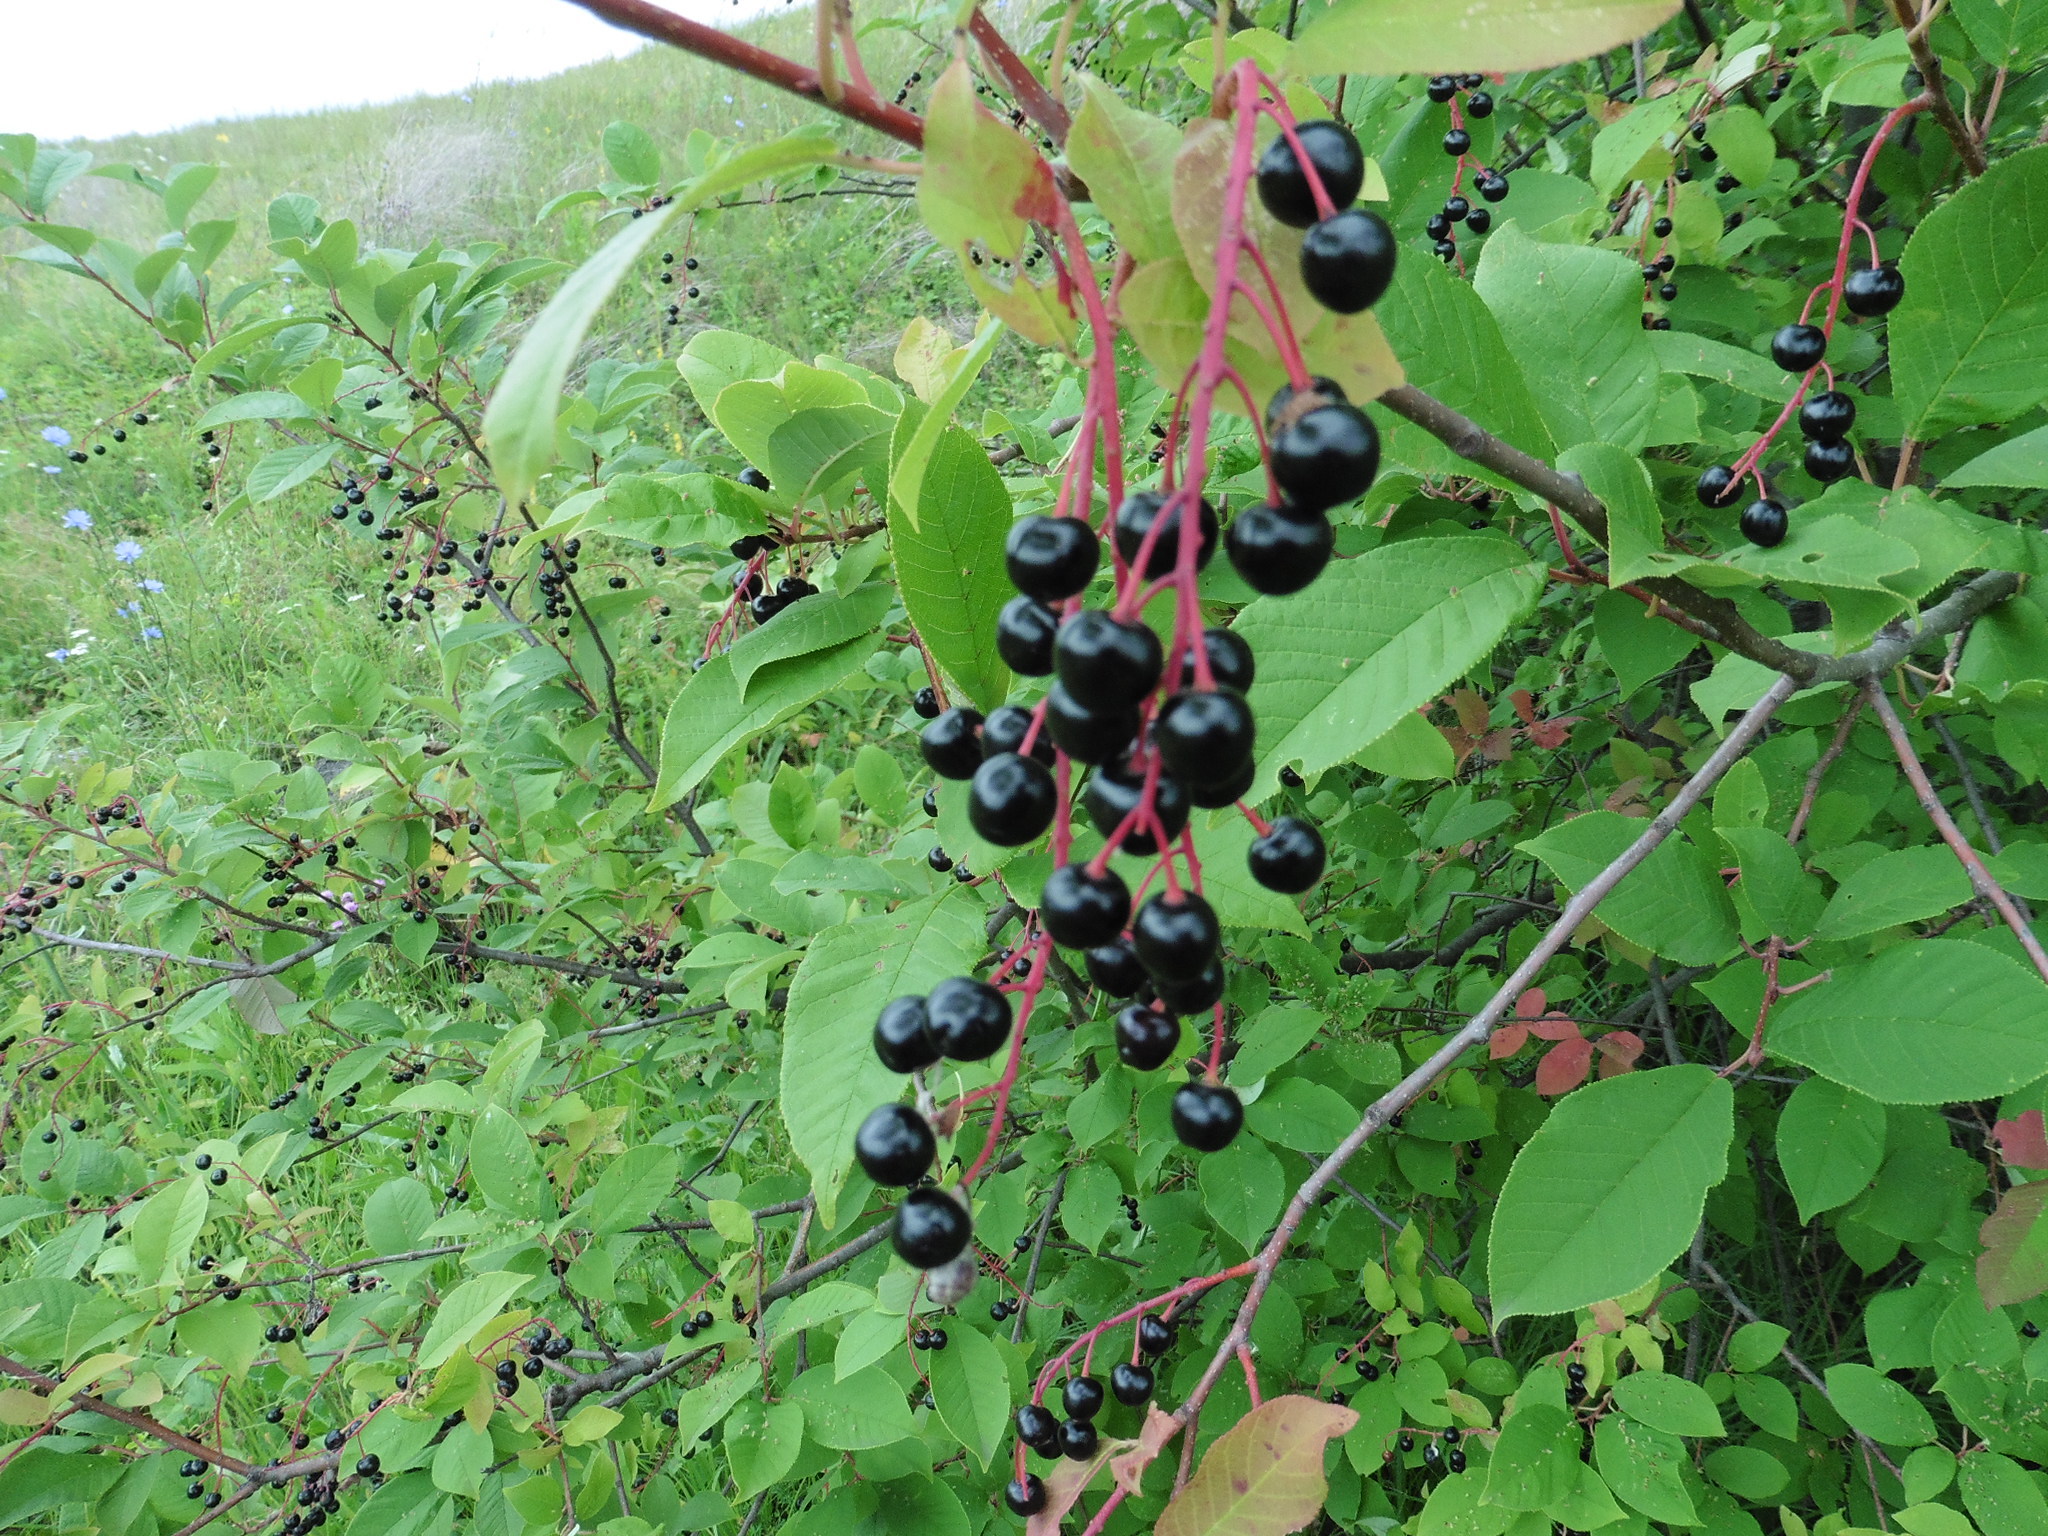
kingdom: Plantae
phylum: Tracheophyta
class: Magnoliopsida
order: Rosales
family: Rosaceae
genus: Prunus
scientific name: Prunus padus
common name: Bird cherry
